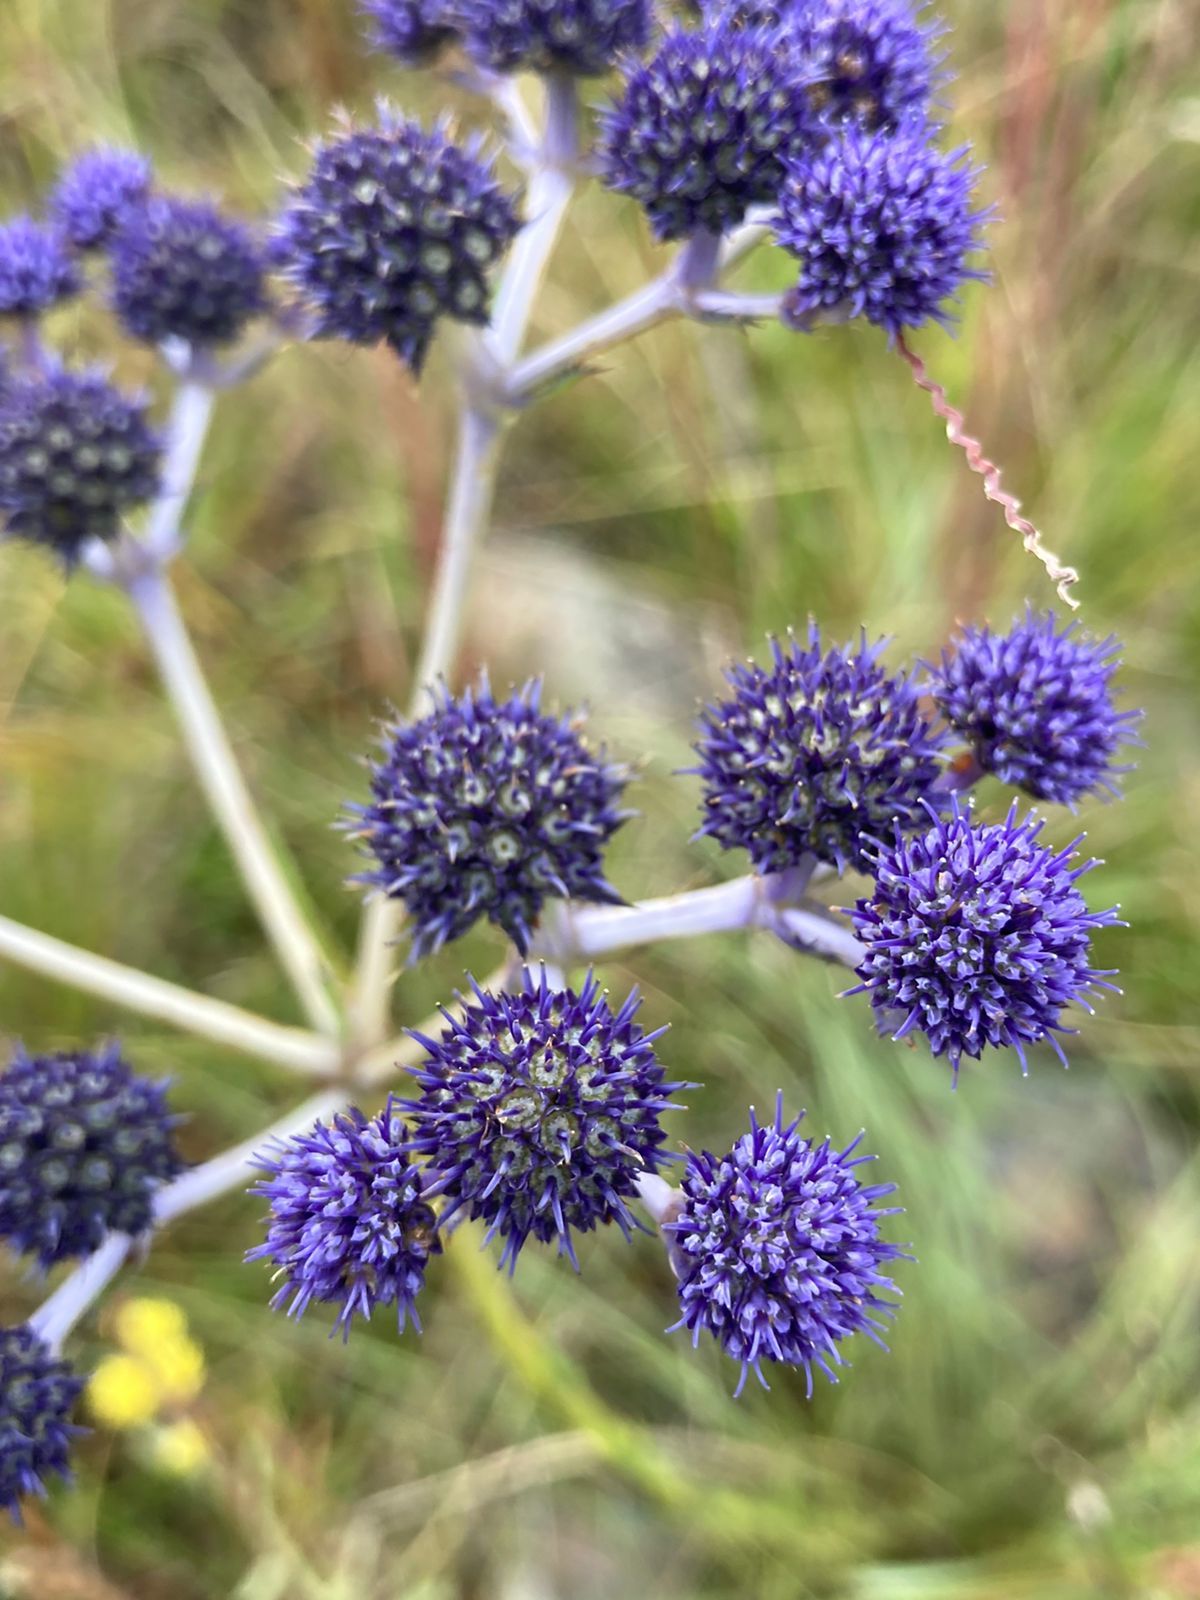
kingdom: Plantae
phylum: Tracheophyta
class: Magnoliopsida
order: Apiales
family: Apiaceae
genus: Eryngium
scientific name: Eryngium junceum
